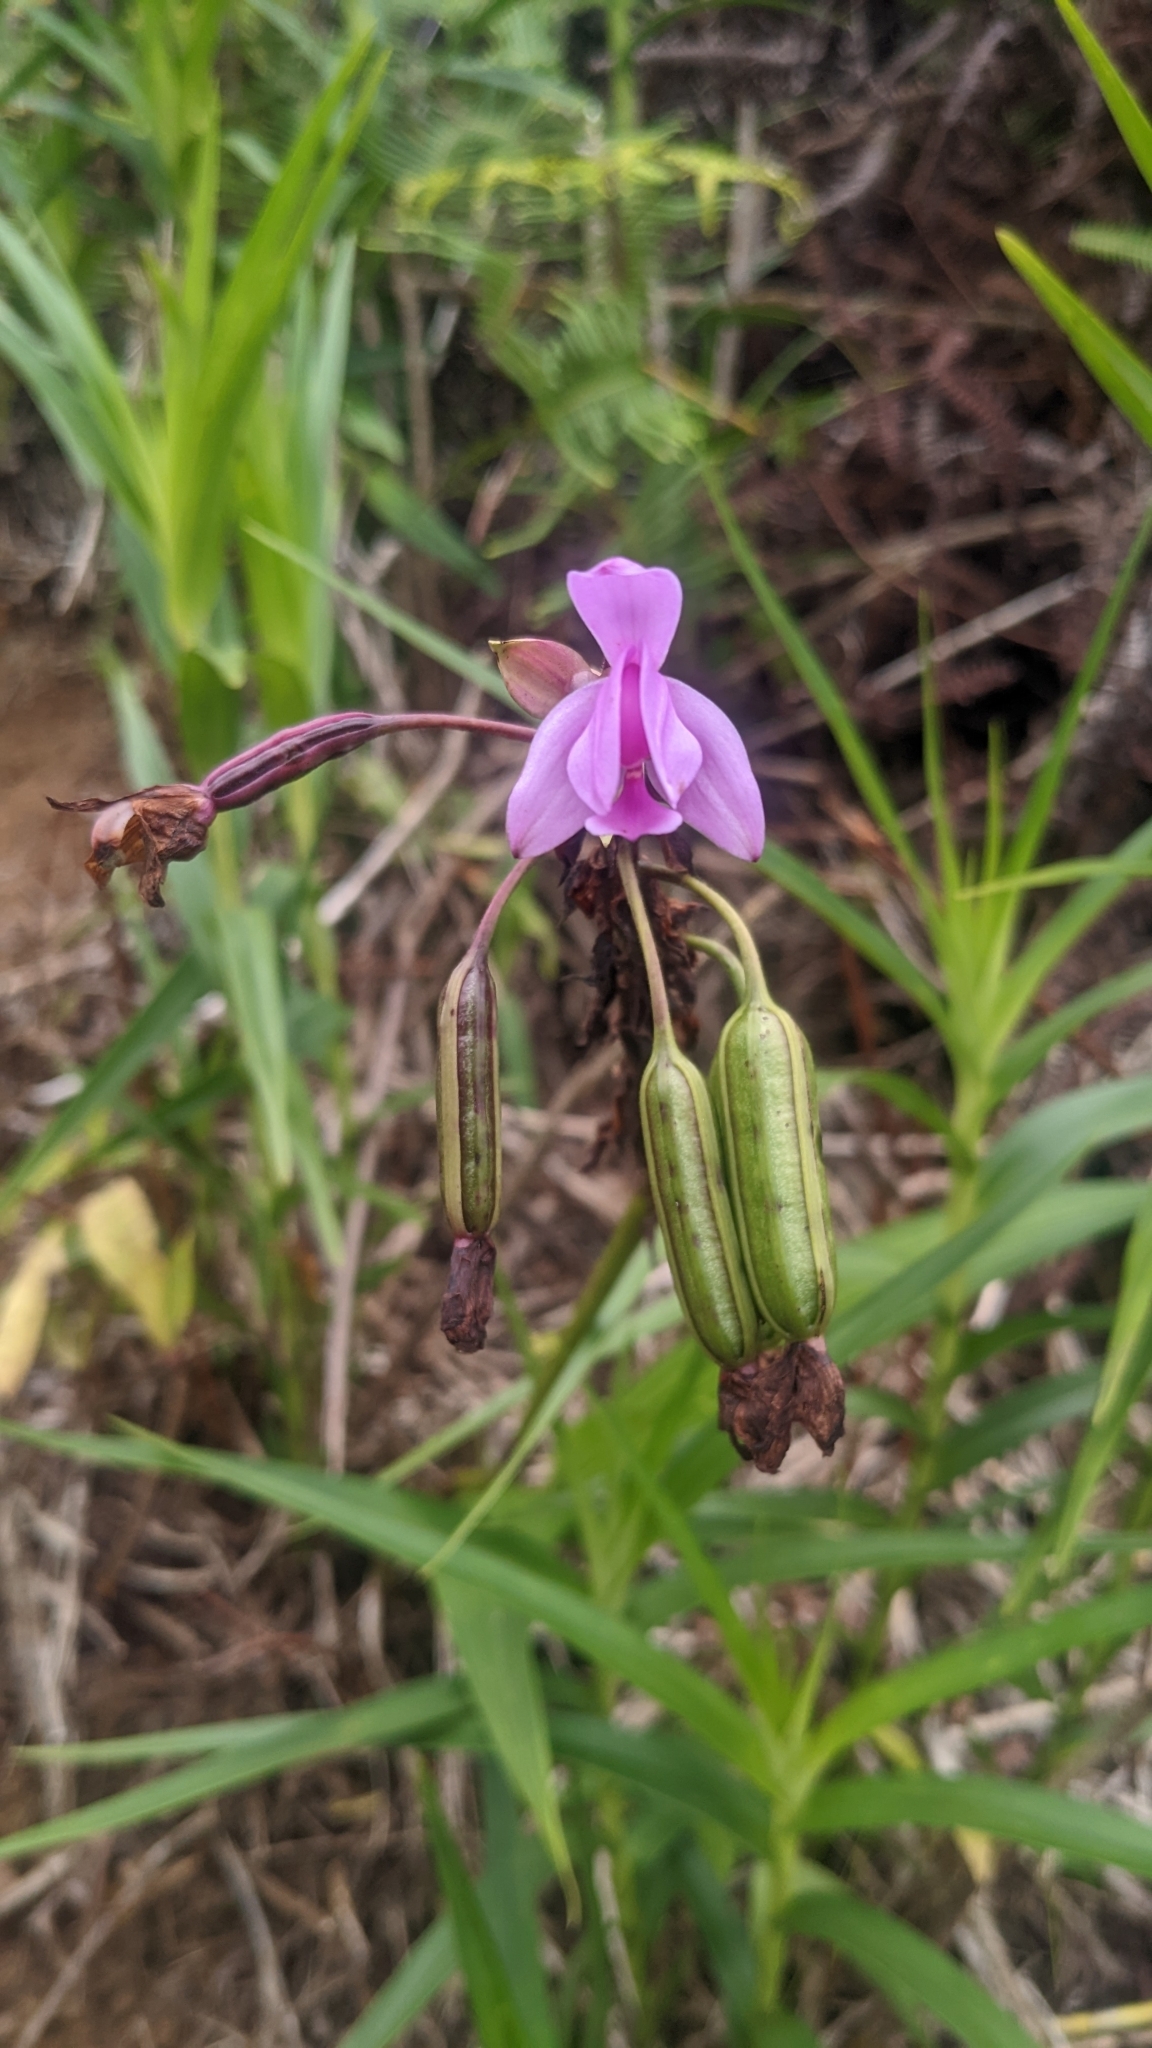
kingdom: Plantae
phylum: Tracheophyta
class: Liliopsida
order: Asparagales
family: Orchidaceae
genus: Spathoglottis
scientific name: Spathoglottis plicata
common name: Philippine ground orchid
